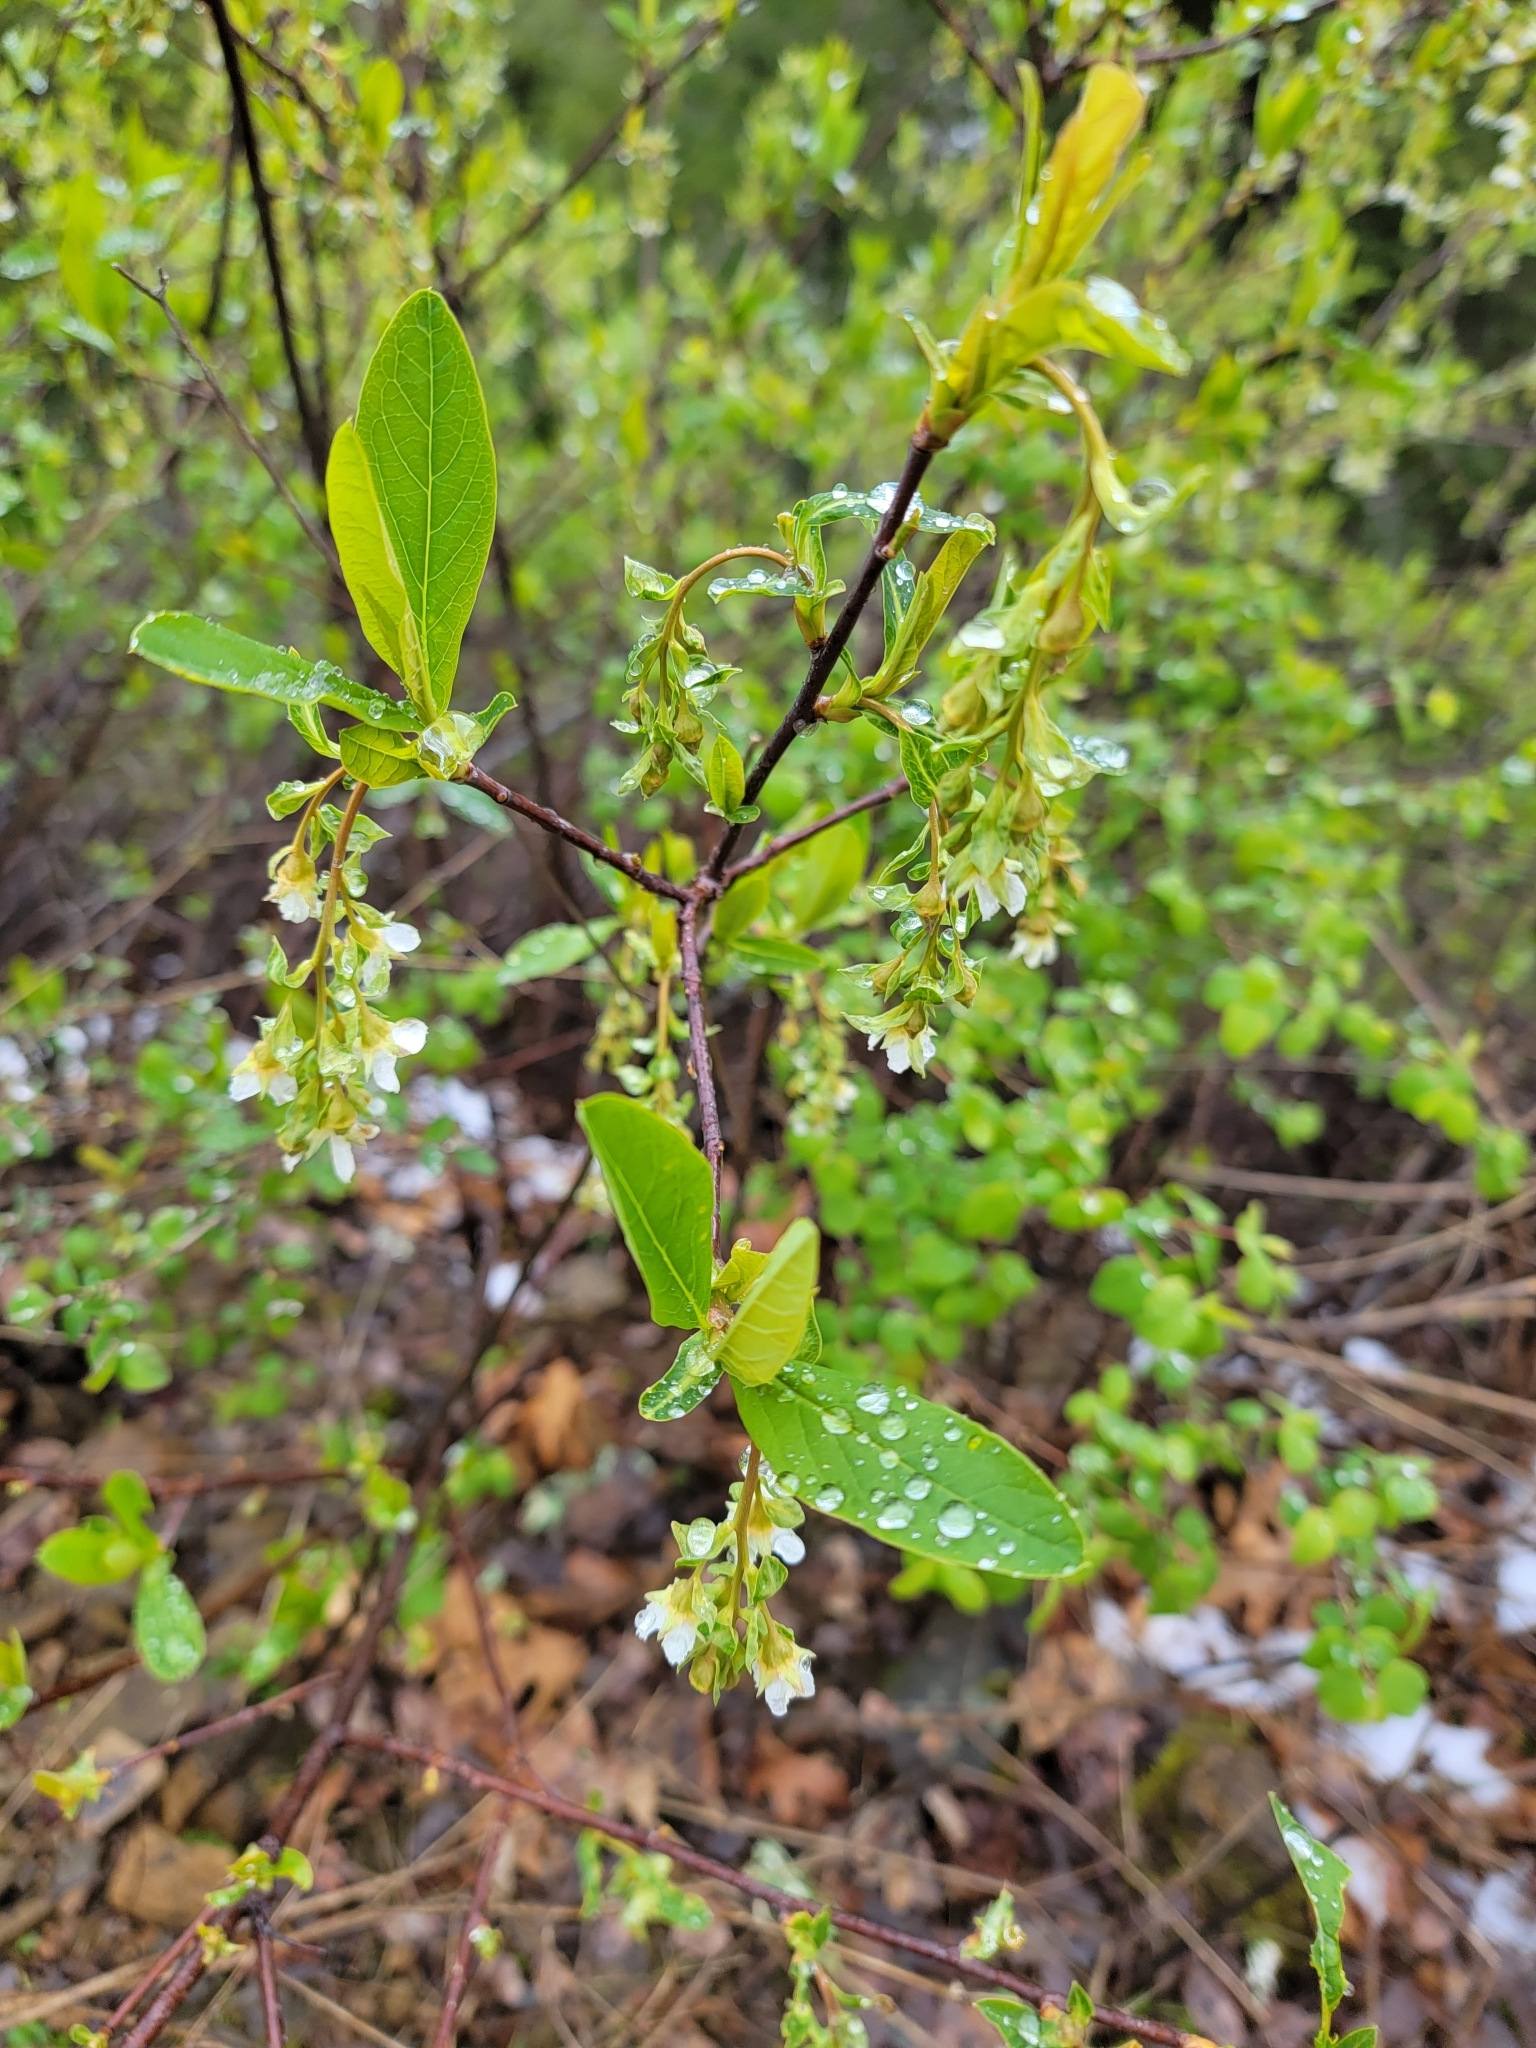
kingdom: Plantae
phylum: Tracheophyta
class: Magnoliopsida
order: Rosales
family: Rosaceae
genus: Oemleria
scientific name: Oemleria cerasiformis
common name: Osoberry
